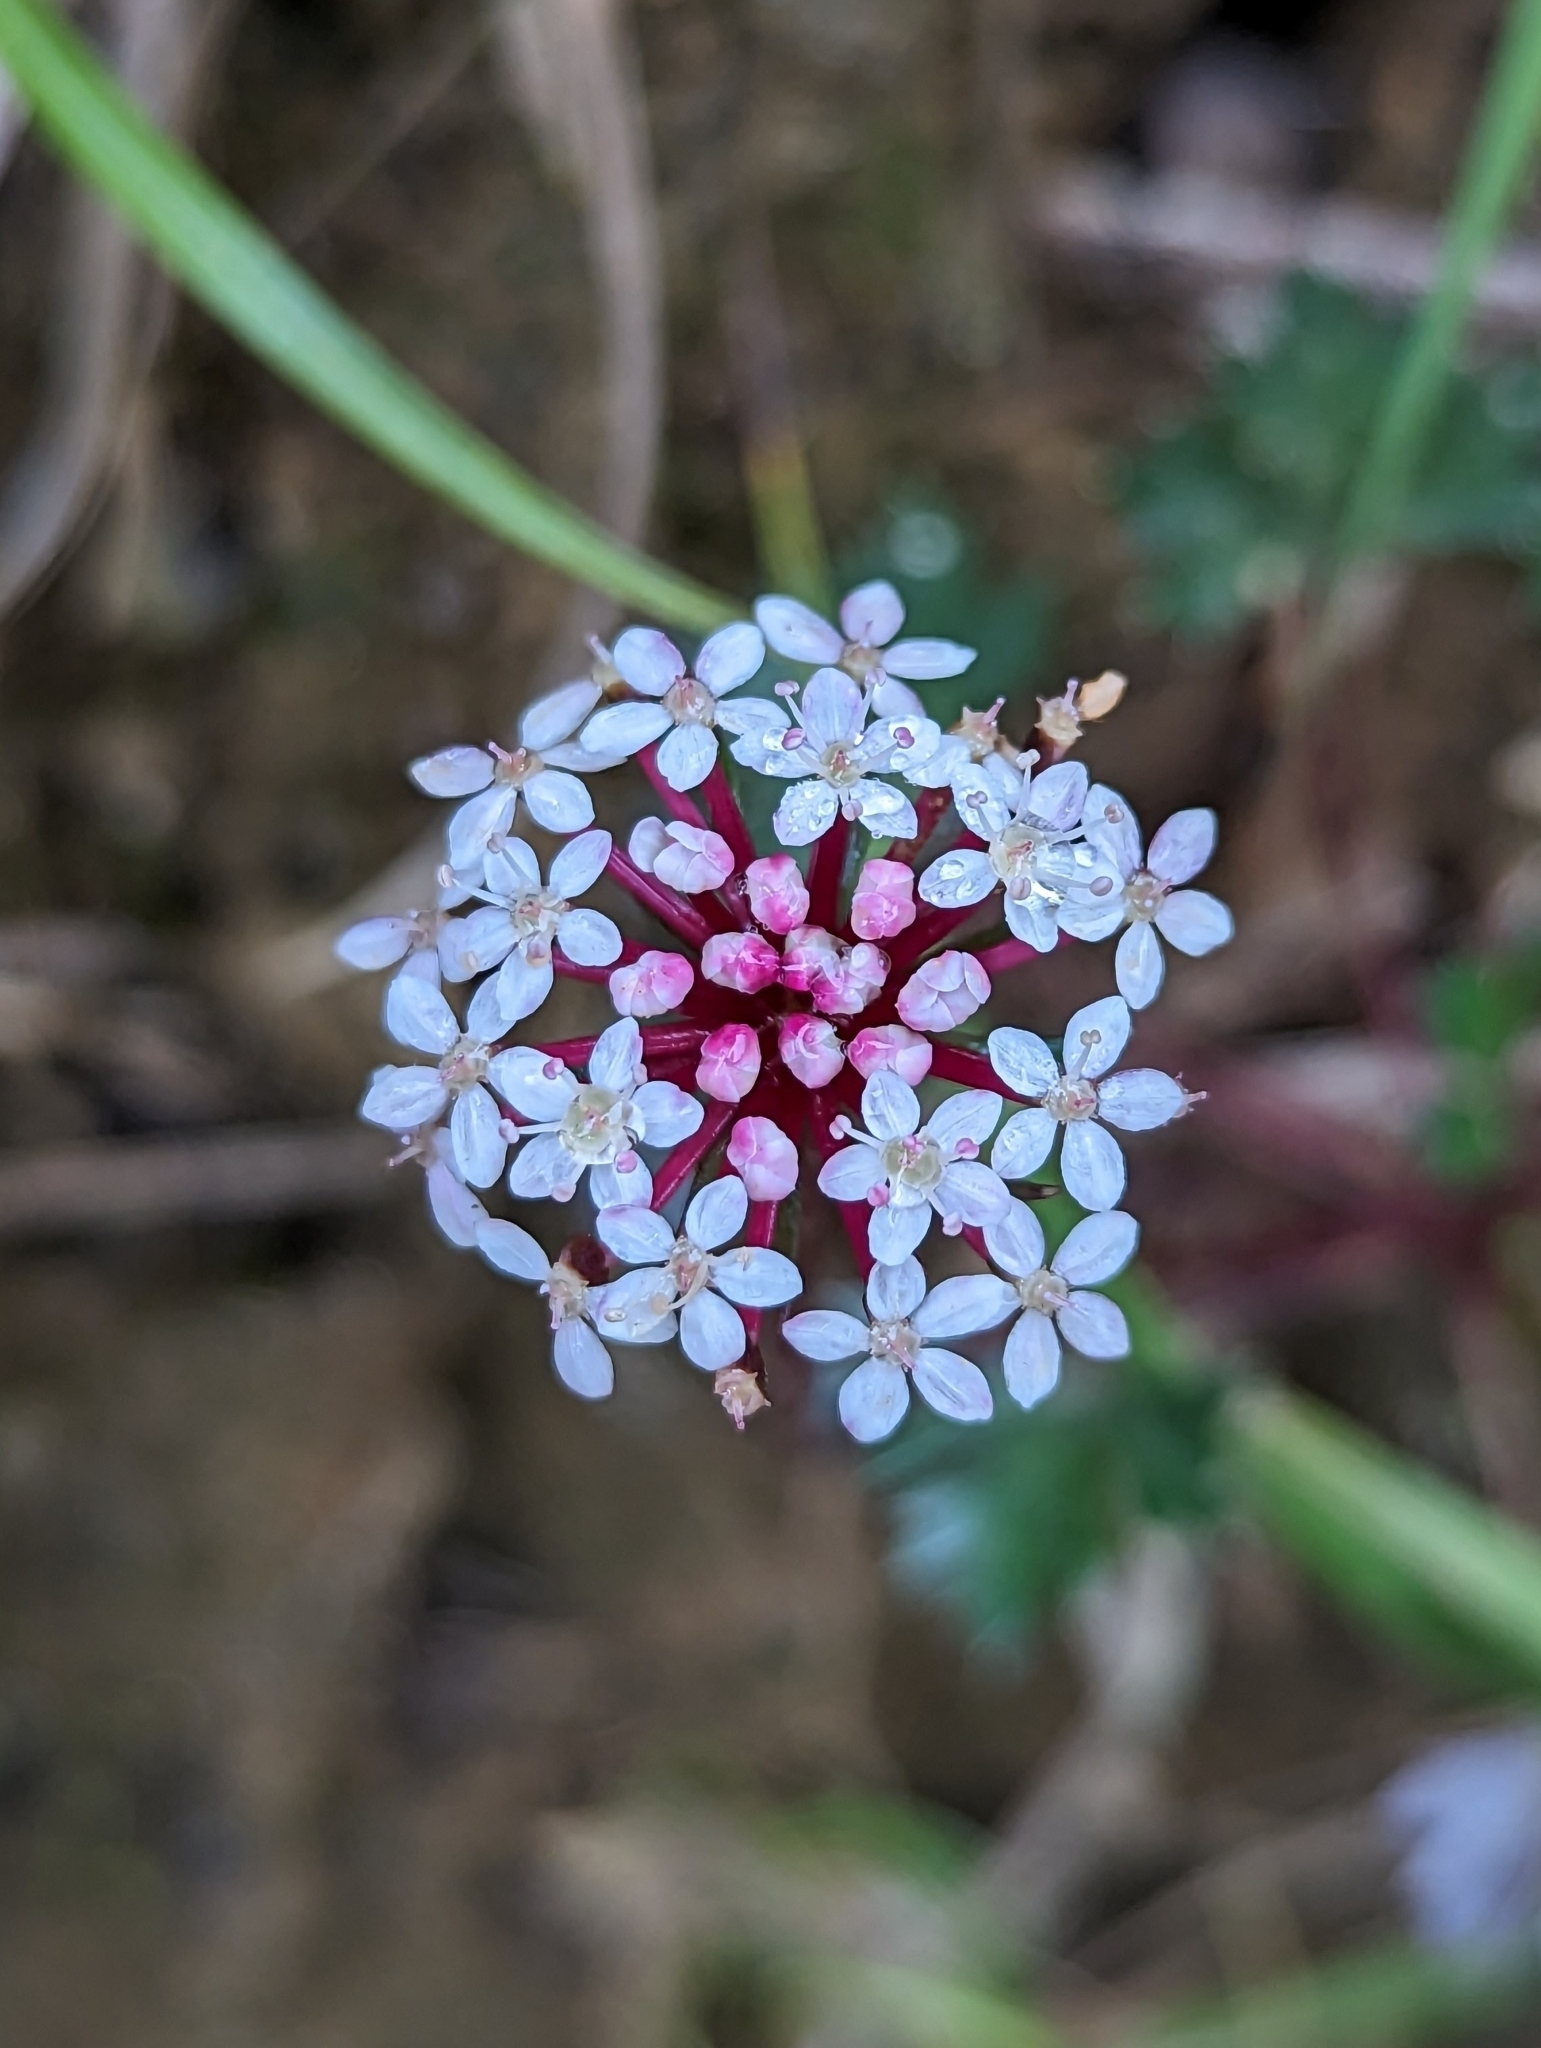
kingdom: Plantae
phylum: Tracheophyta
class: Magnoliopsida
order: Apiales
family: Araliaceae
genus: Trachymene
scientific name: Trachymene saniculifolia
